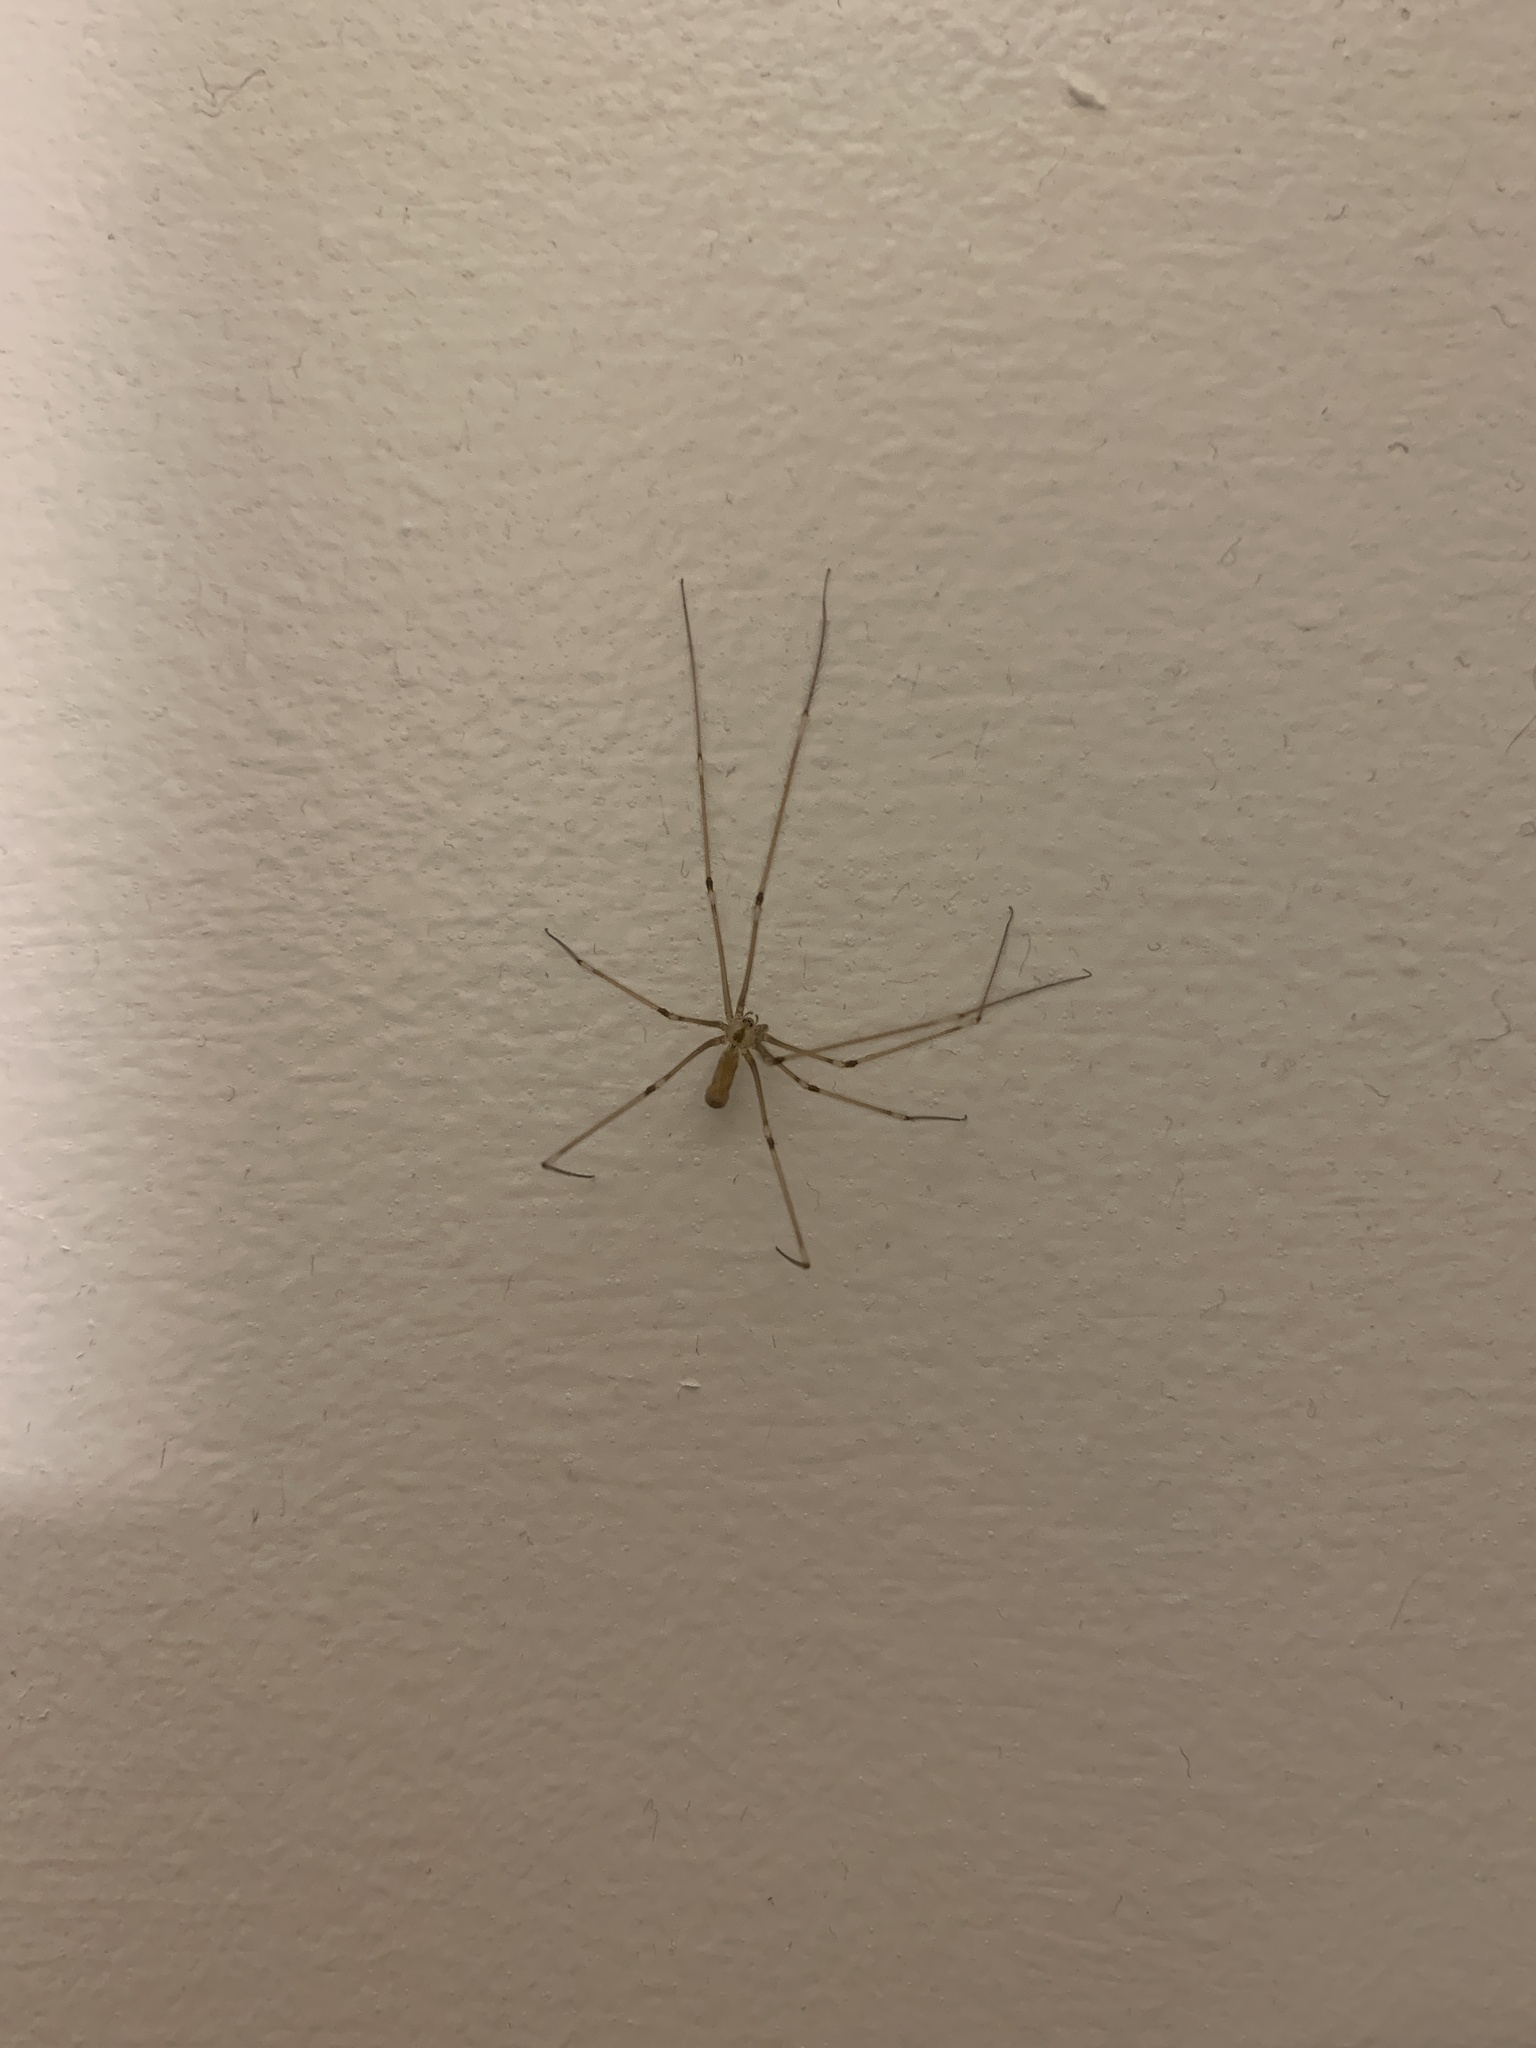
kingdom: Animalia
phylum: Arthropoda
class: Arachnida
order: Araneae
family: Pholcidae
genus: Pholcus
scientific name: Pholcus phalangioides
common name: Longbodied cellar spider
